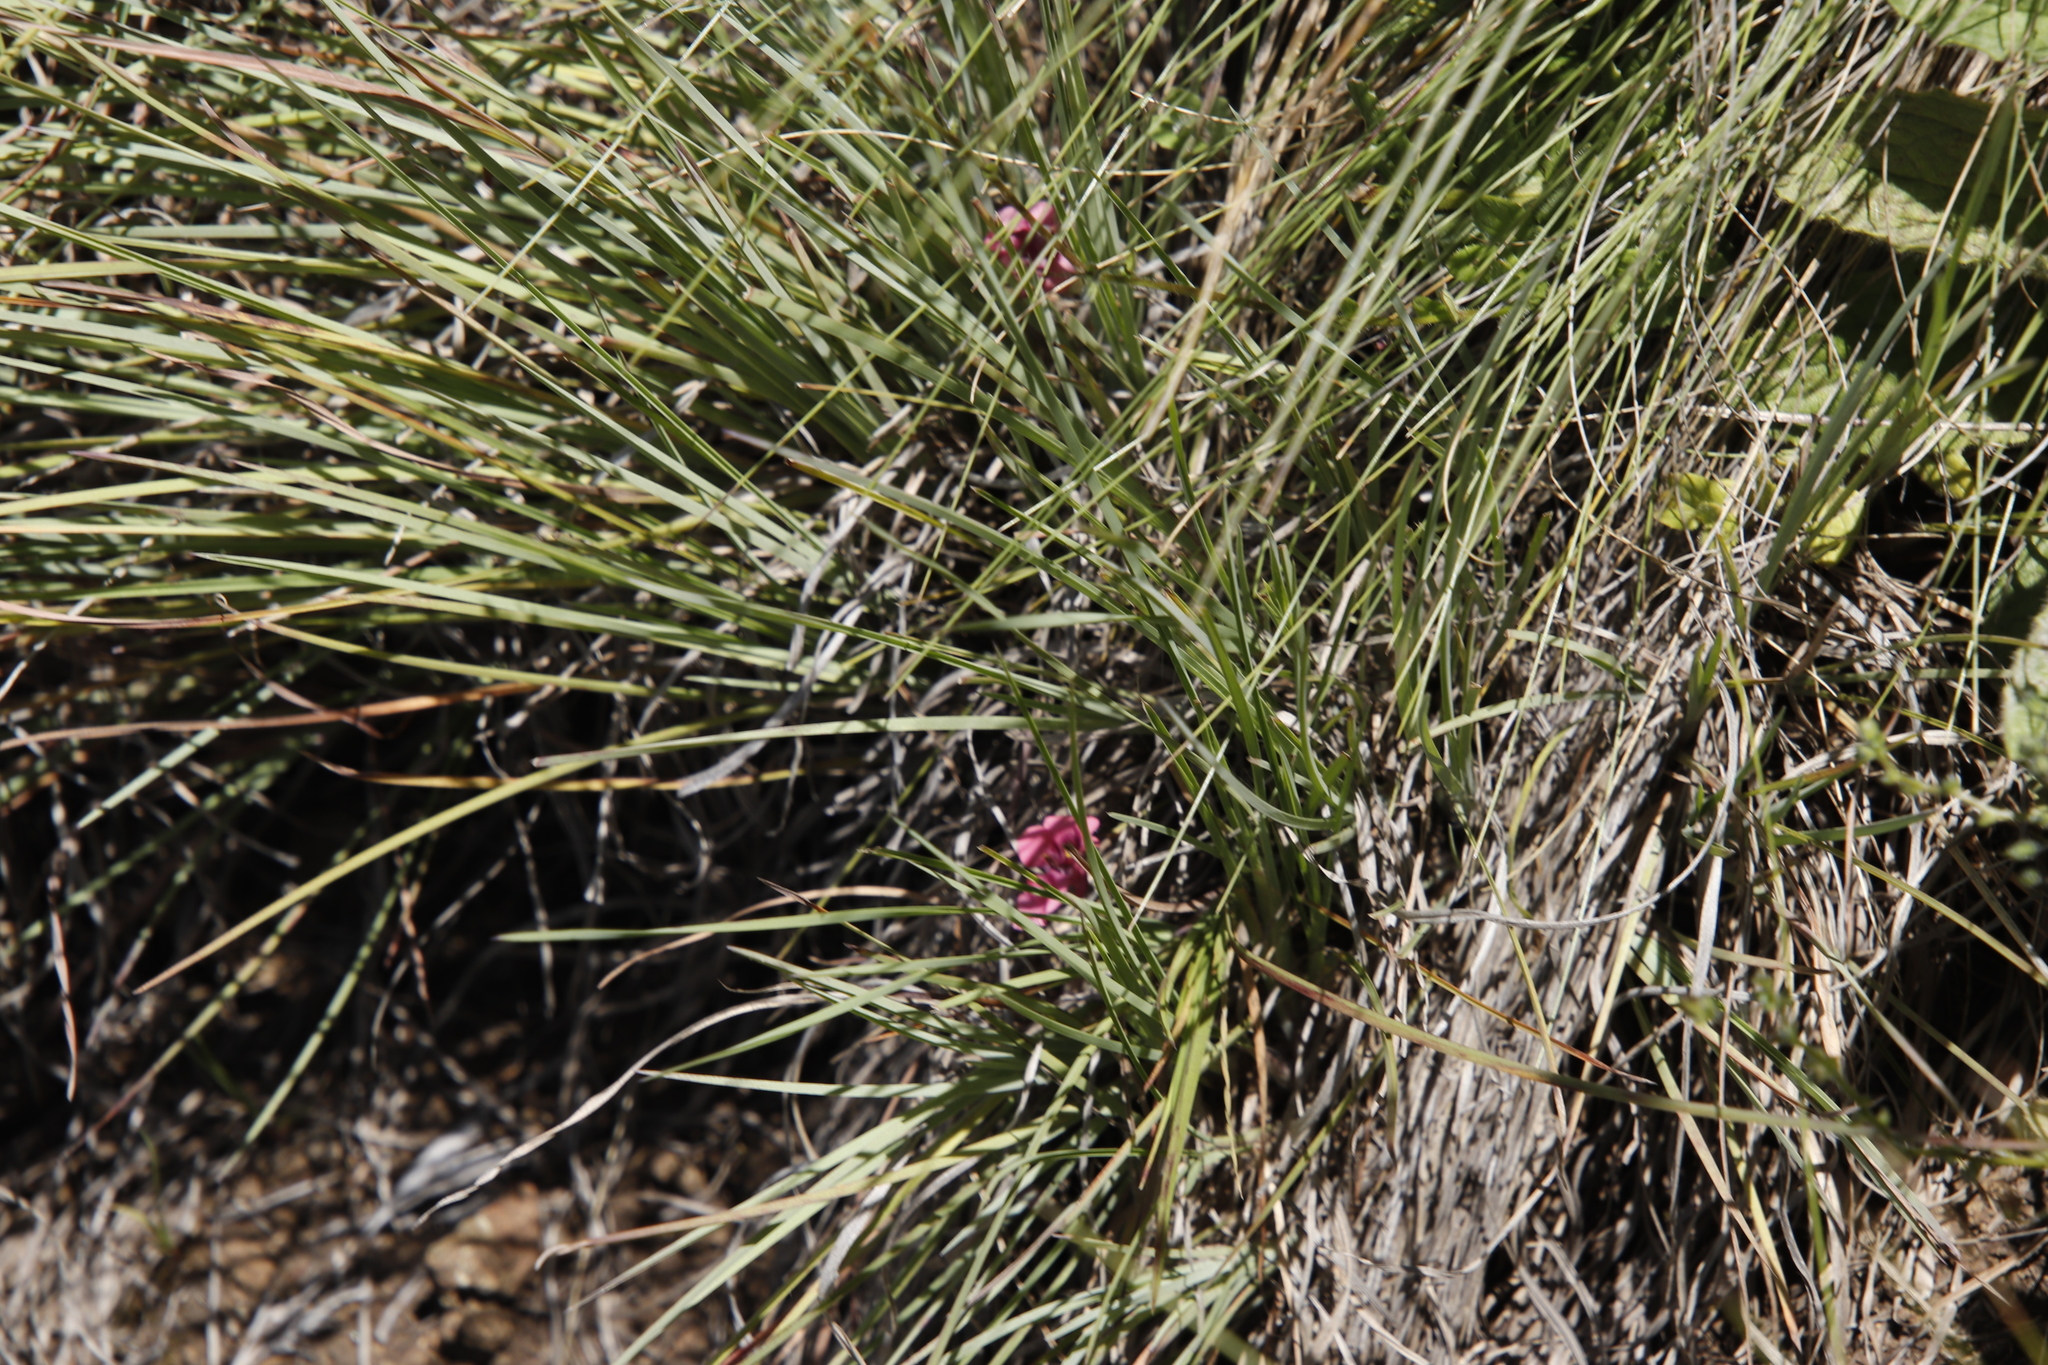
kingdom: Plantae
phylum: Tracheophyta
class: Magnoliopsida
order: Fabales
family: Fabaceae
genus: Trifolium
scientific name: Trifolium burchellianum
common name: Burchell's clover
